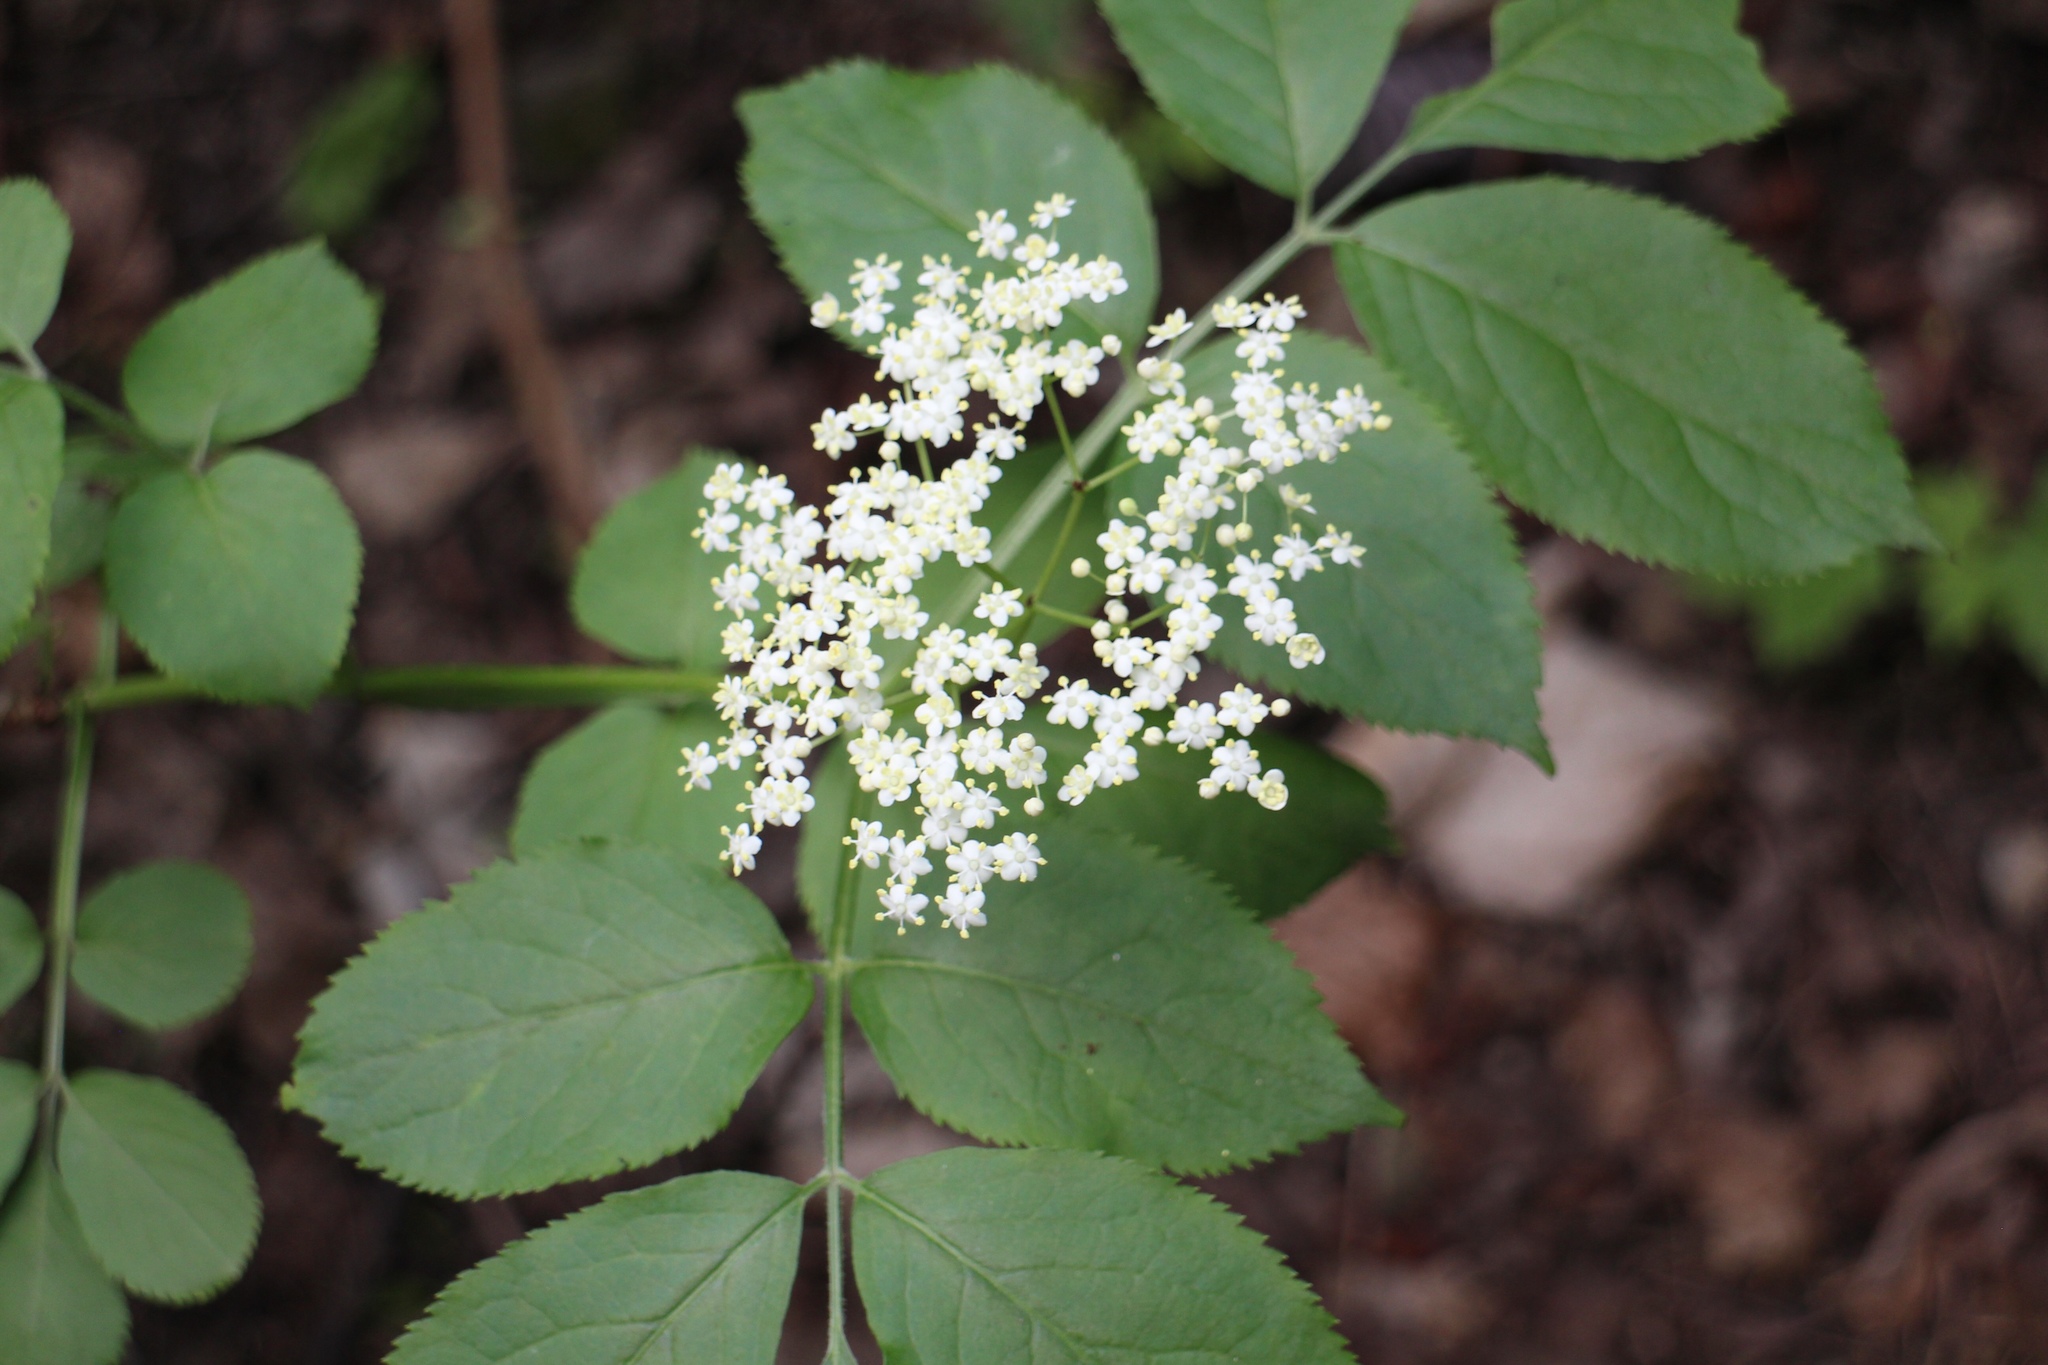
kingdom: Plantae
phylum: Tracheophyta
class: Magnoliopsida
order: Dipsacales
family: Viburnaceae
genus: Sambucus
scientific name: Sambucus nigra
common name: Elder
